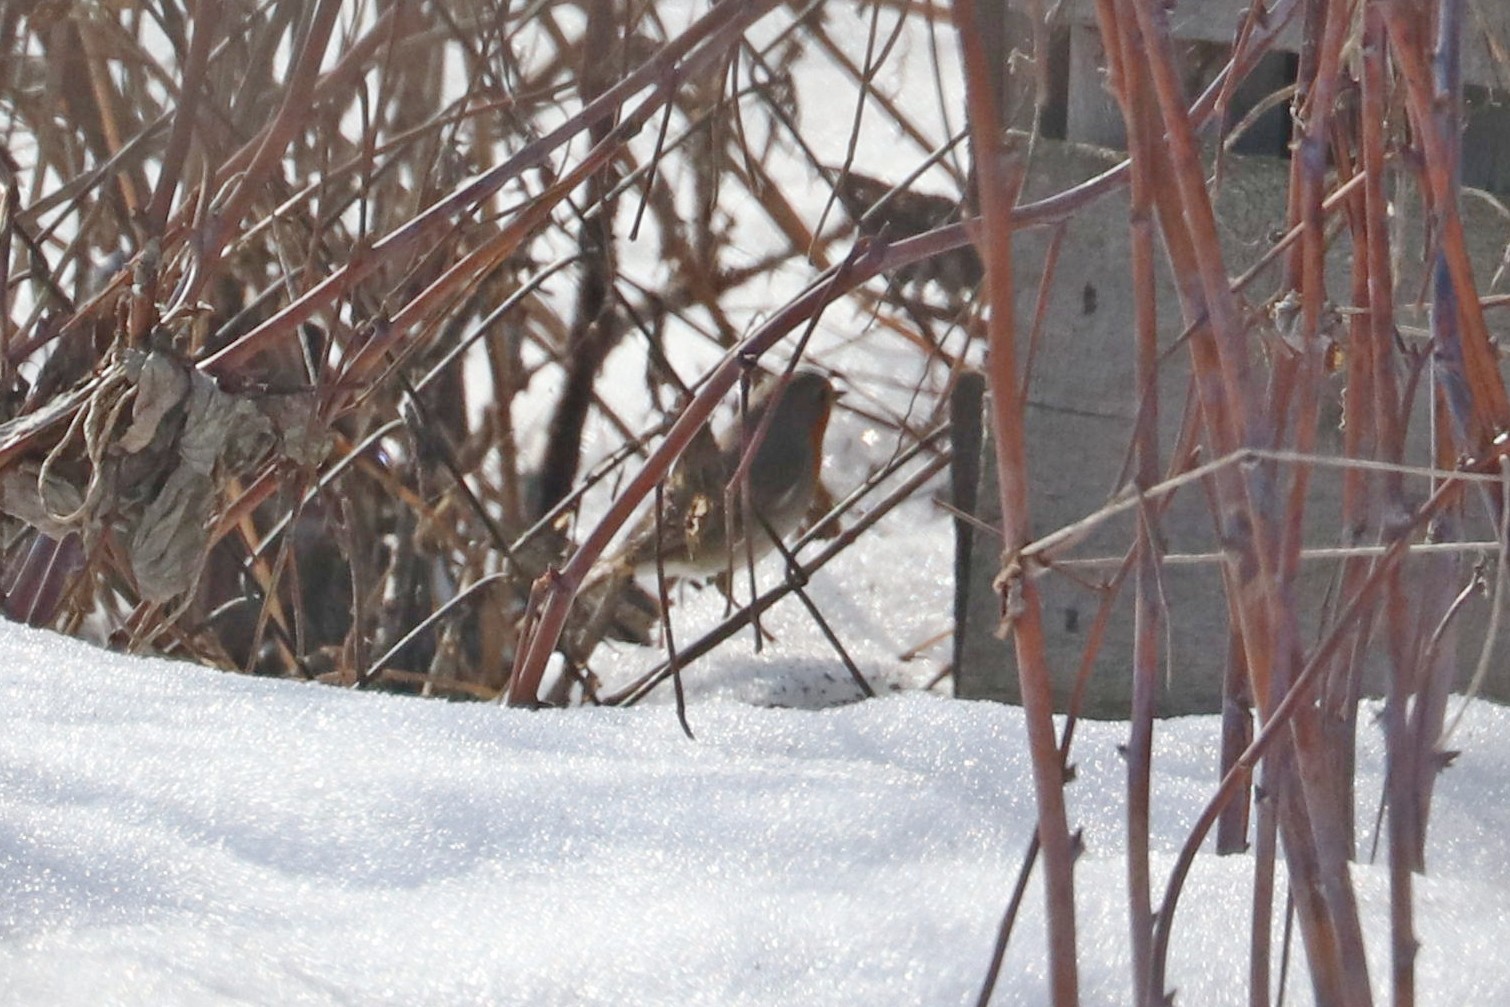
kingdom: Animalia
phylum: Chordata
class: Aves
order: Passeriformes
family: Muscicapidae
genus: Erithacus
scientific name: Erithacus rubecula
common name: European robin
